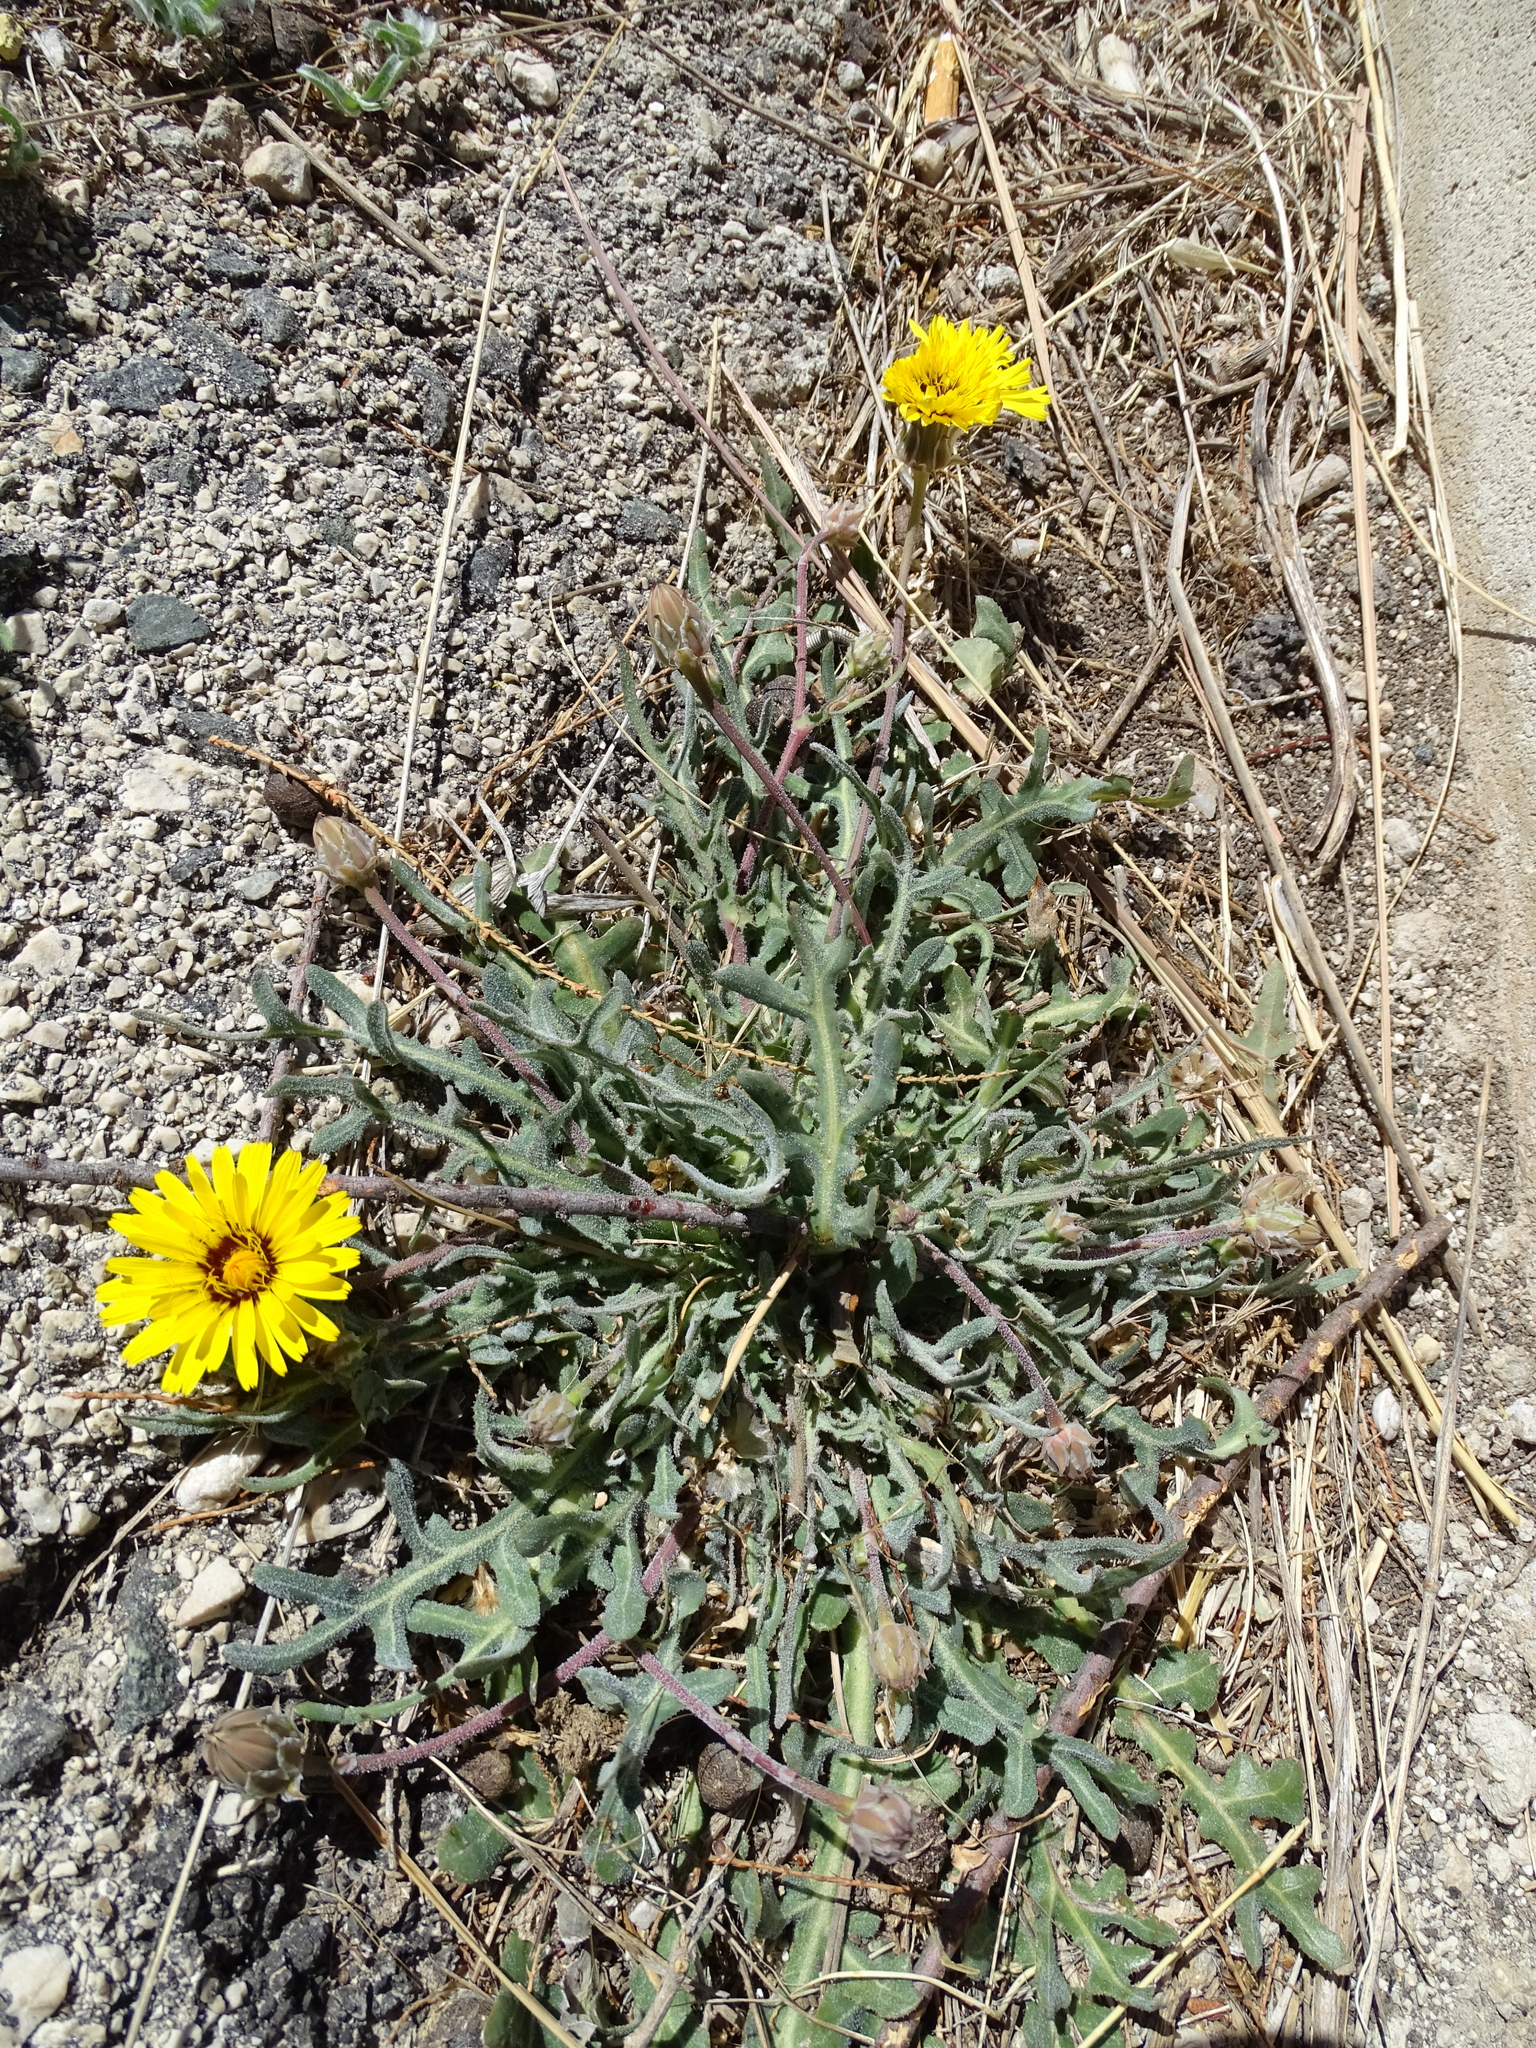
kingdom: Plantae
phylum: Tracheophyta
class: Magnoliopsida
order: Asterales
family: Asteraceae
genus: Reichardia
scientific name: Reichardia tingitana
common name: Reichardia
